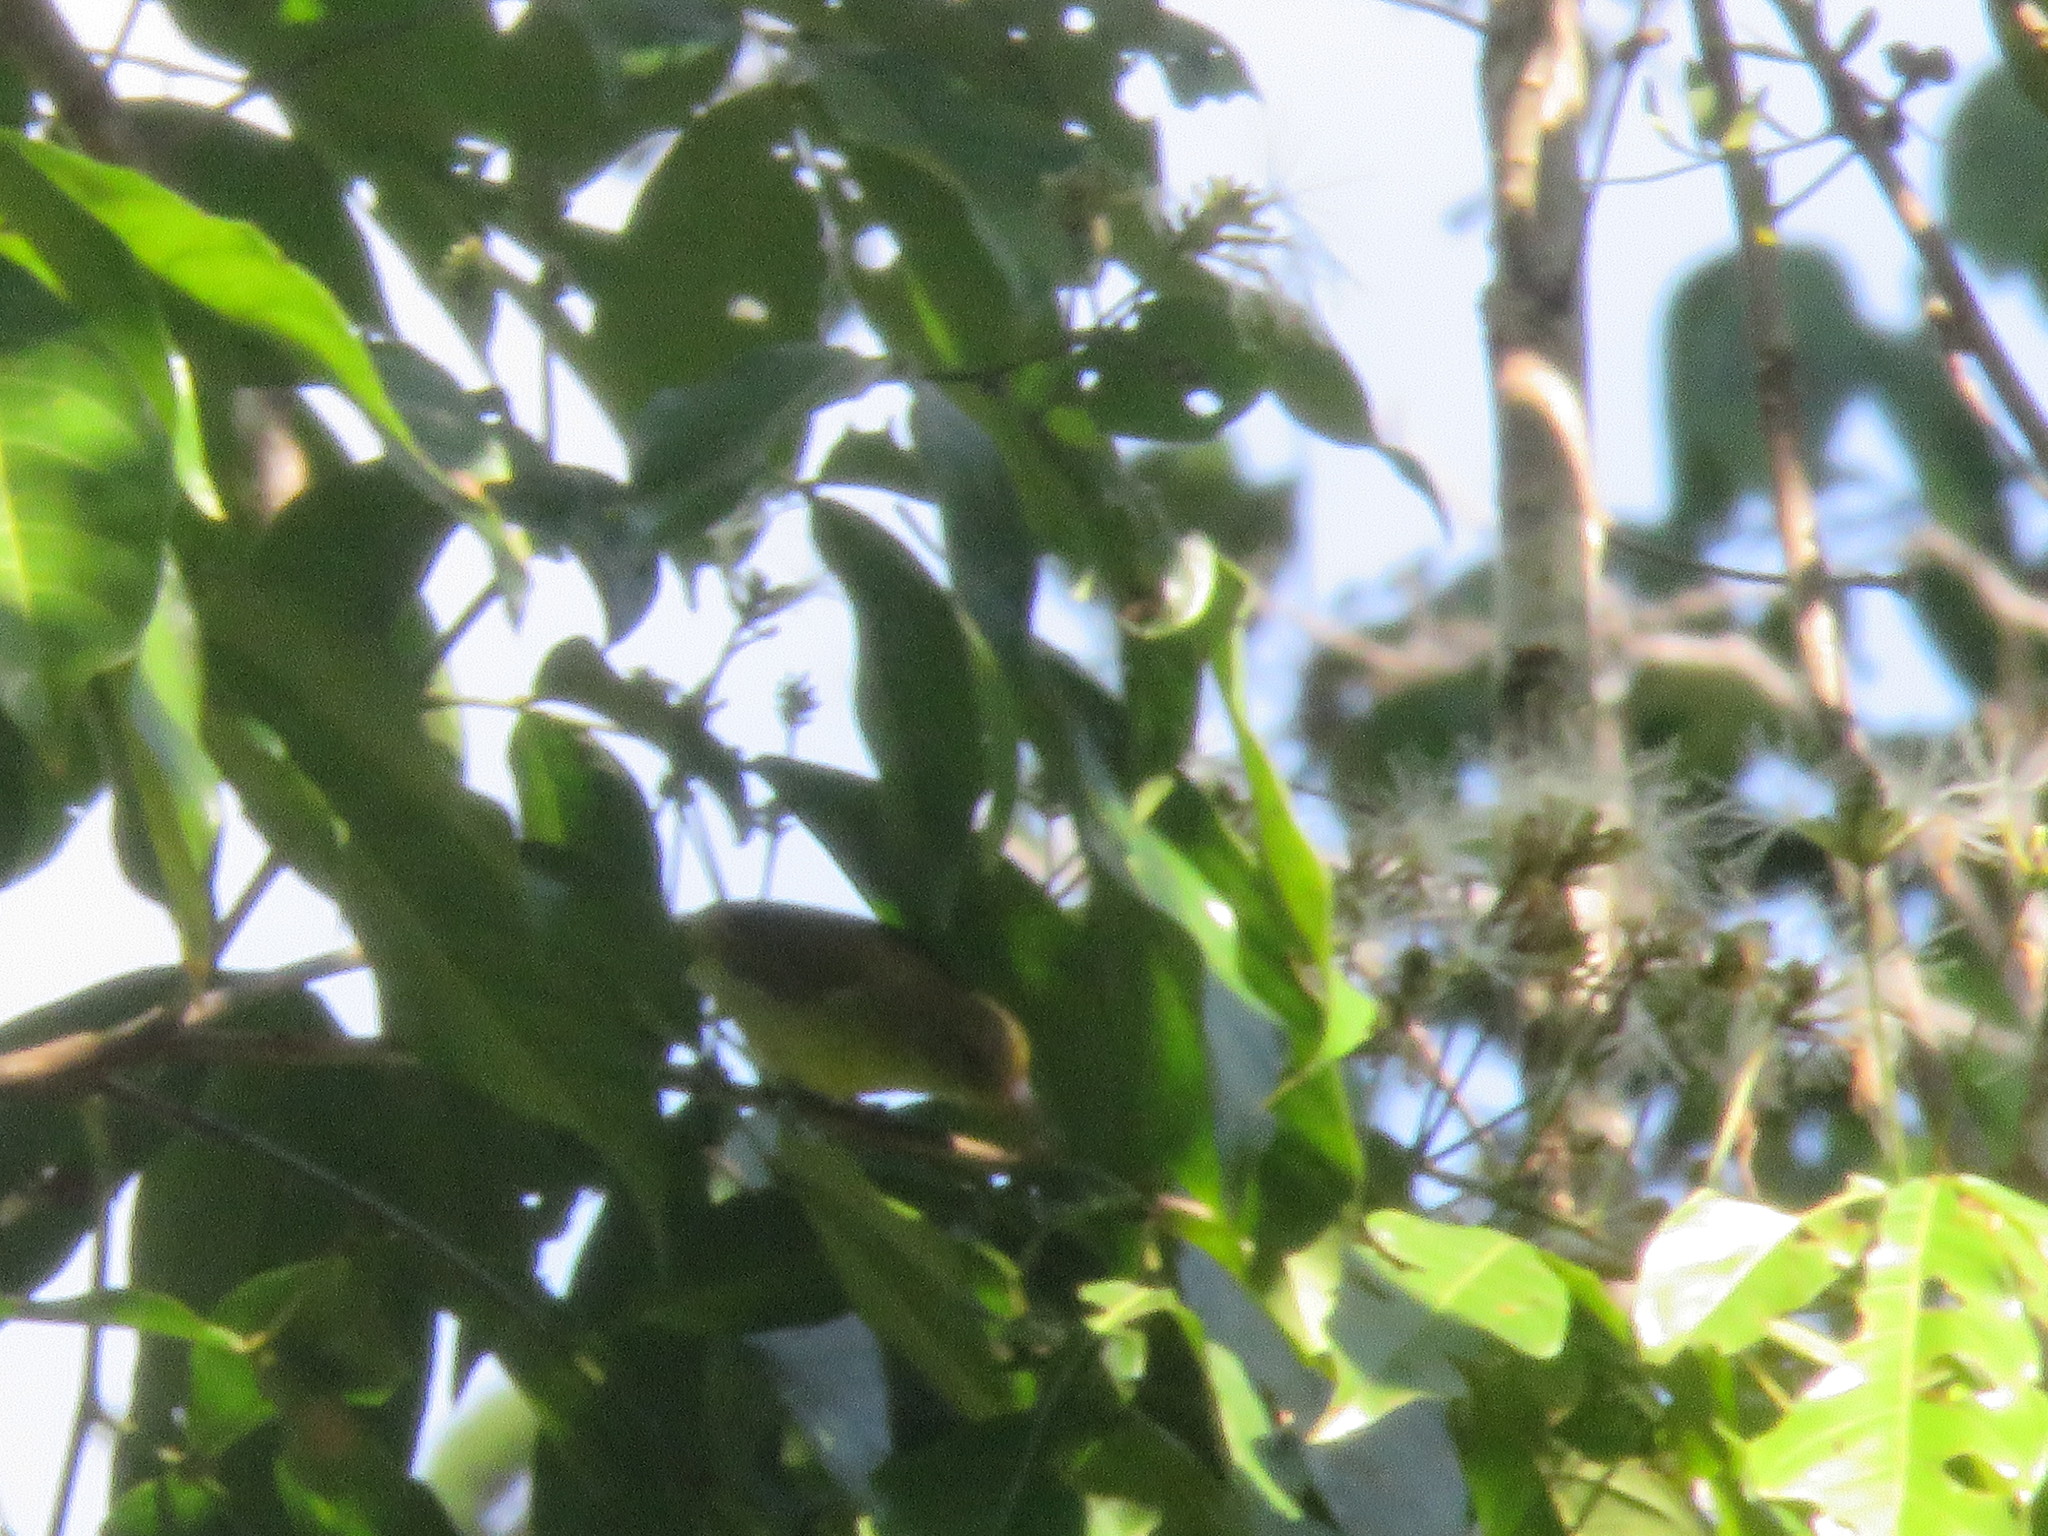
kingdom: Animalia
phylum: Chordata
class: Aves
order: Passeriformes
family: Thraupidae
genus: Hemithraupis
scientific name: Hemithraupis guira
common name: Guira tanager
